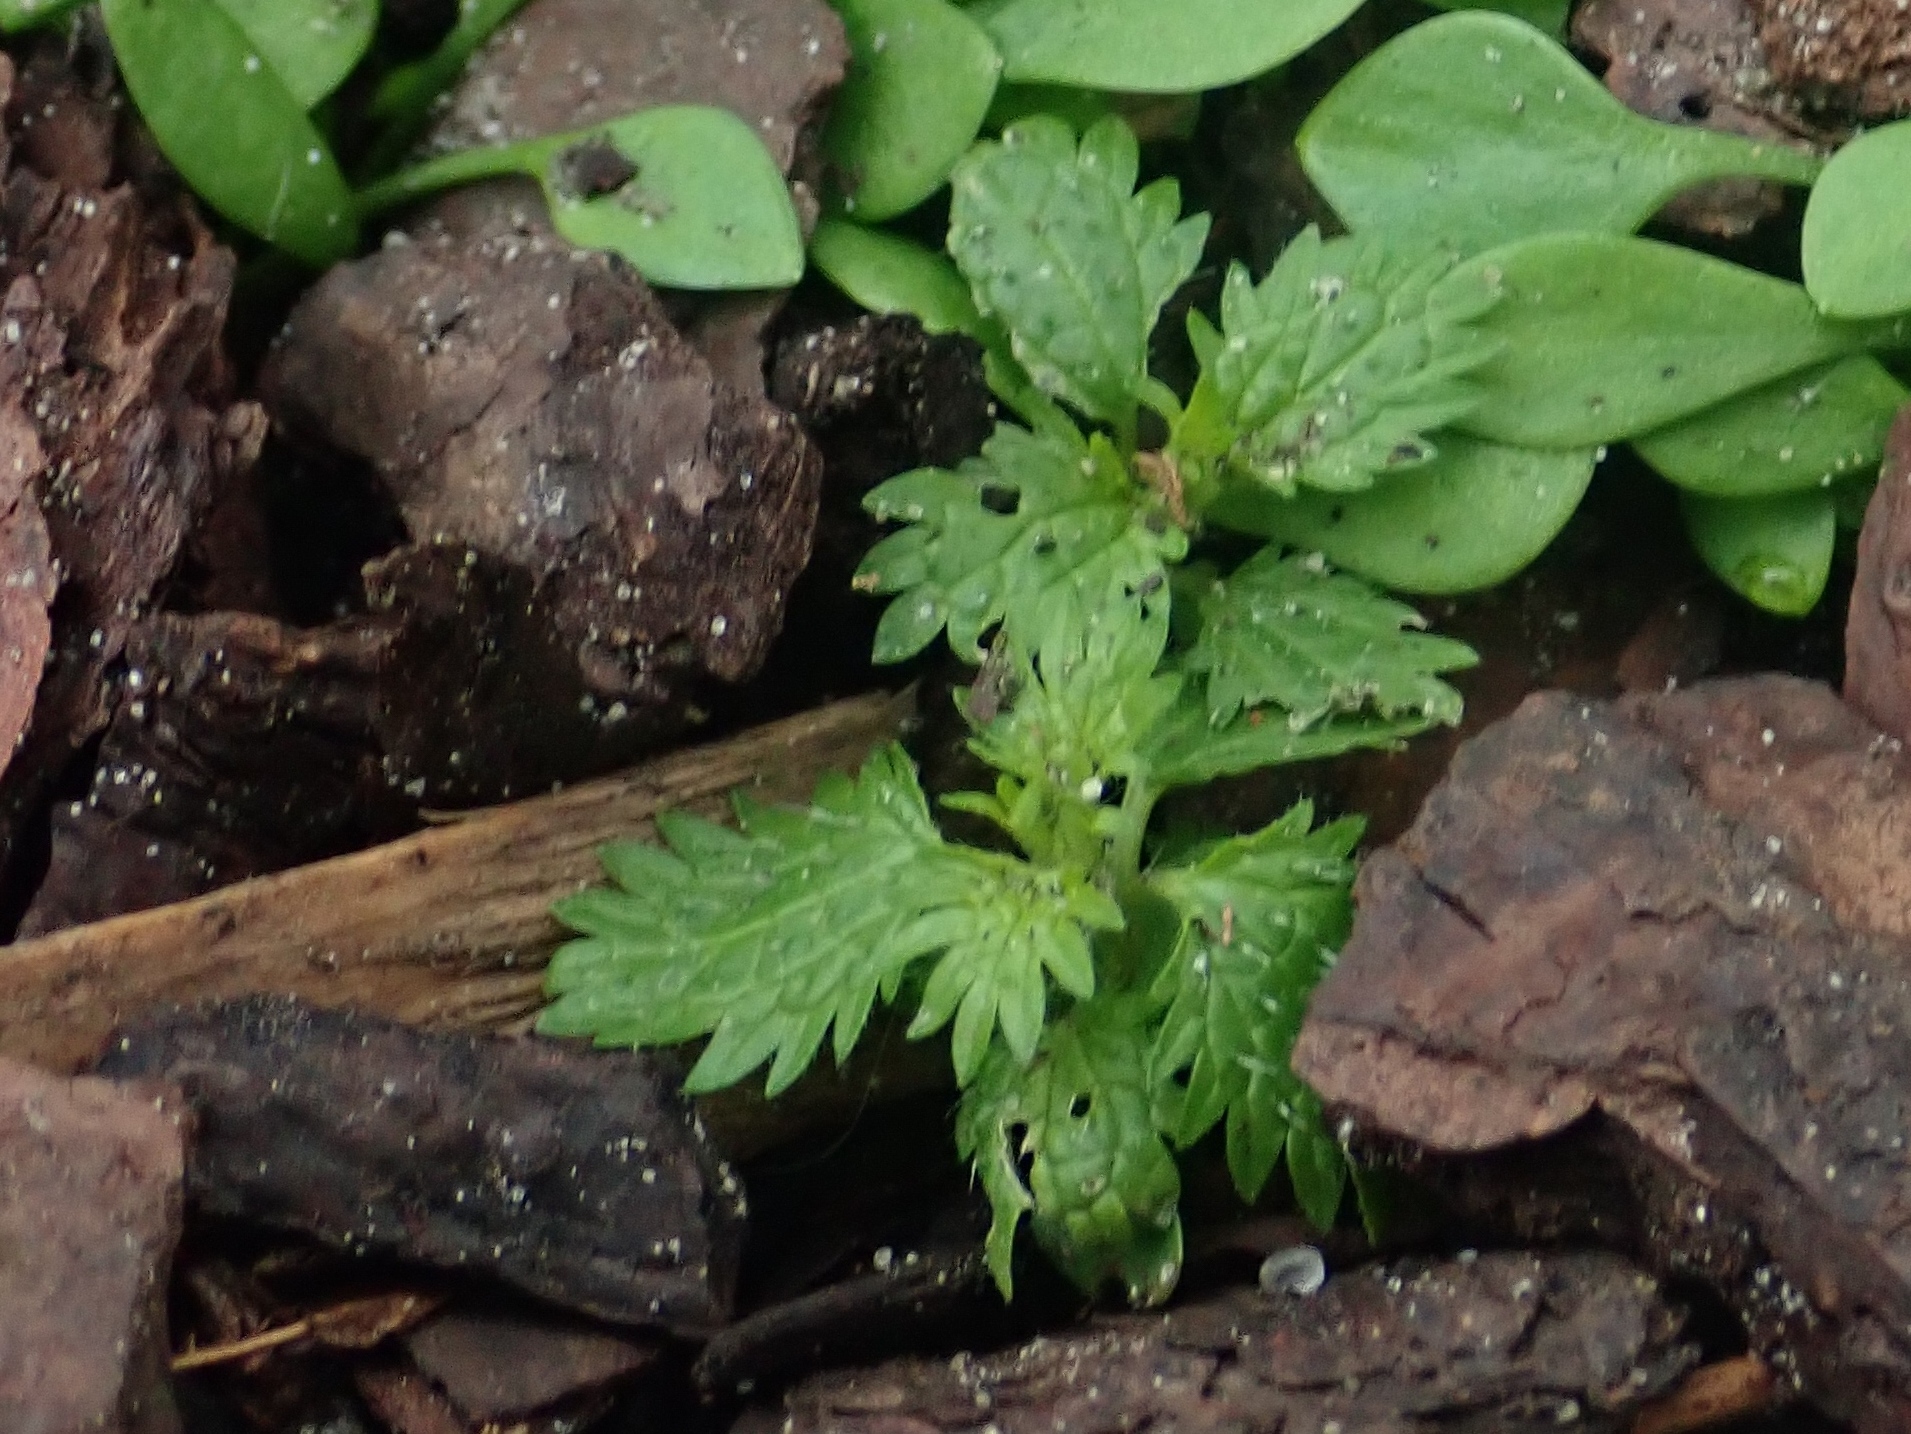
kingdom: Plantae
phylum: Tracheophyta
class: Magnoliopsida
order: Rosales
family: Urticaceae
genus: Urtica
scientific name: Urtica urens
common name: Dwarf nettle
